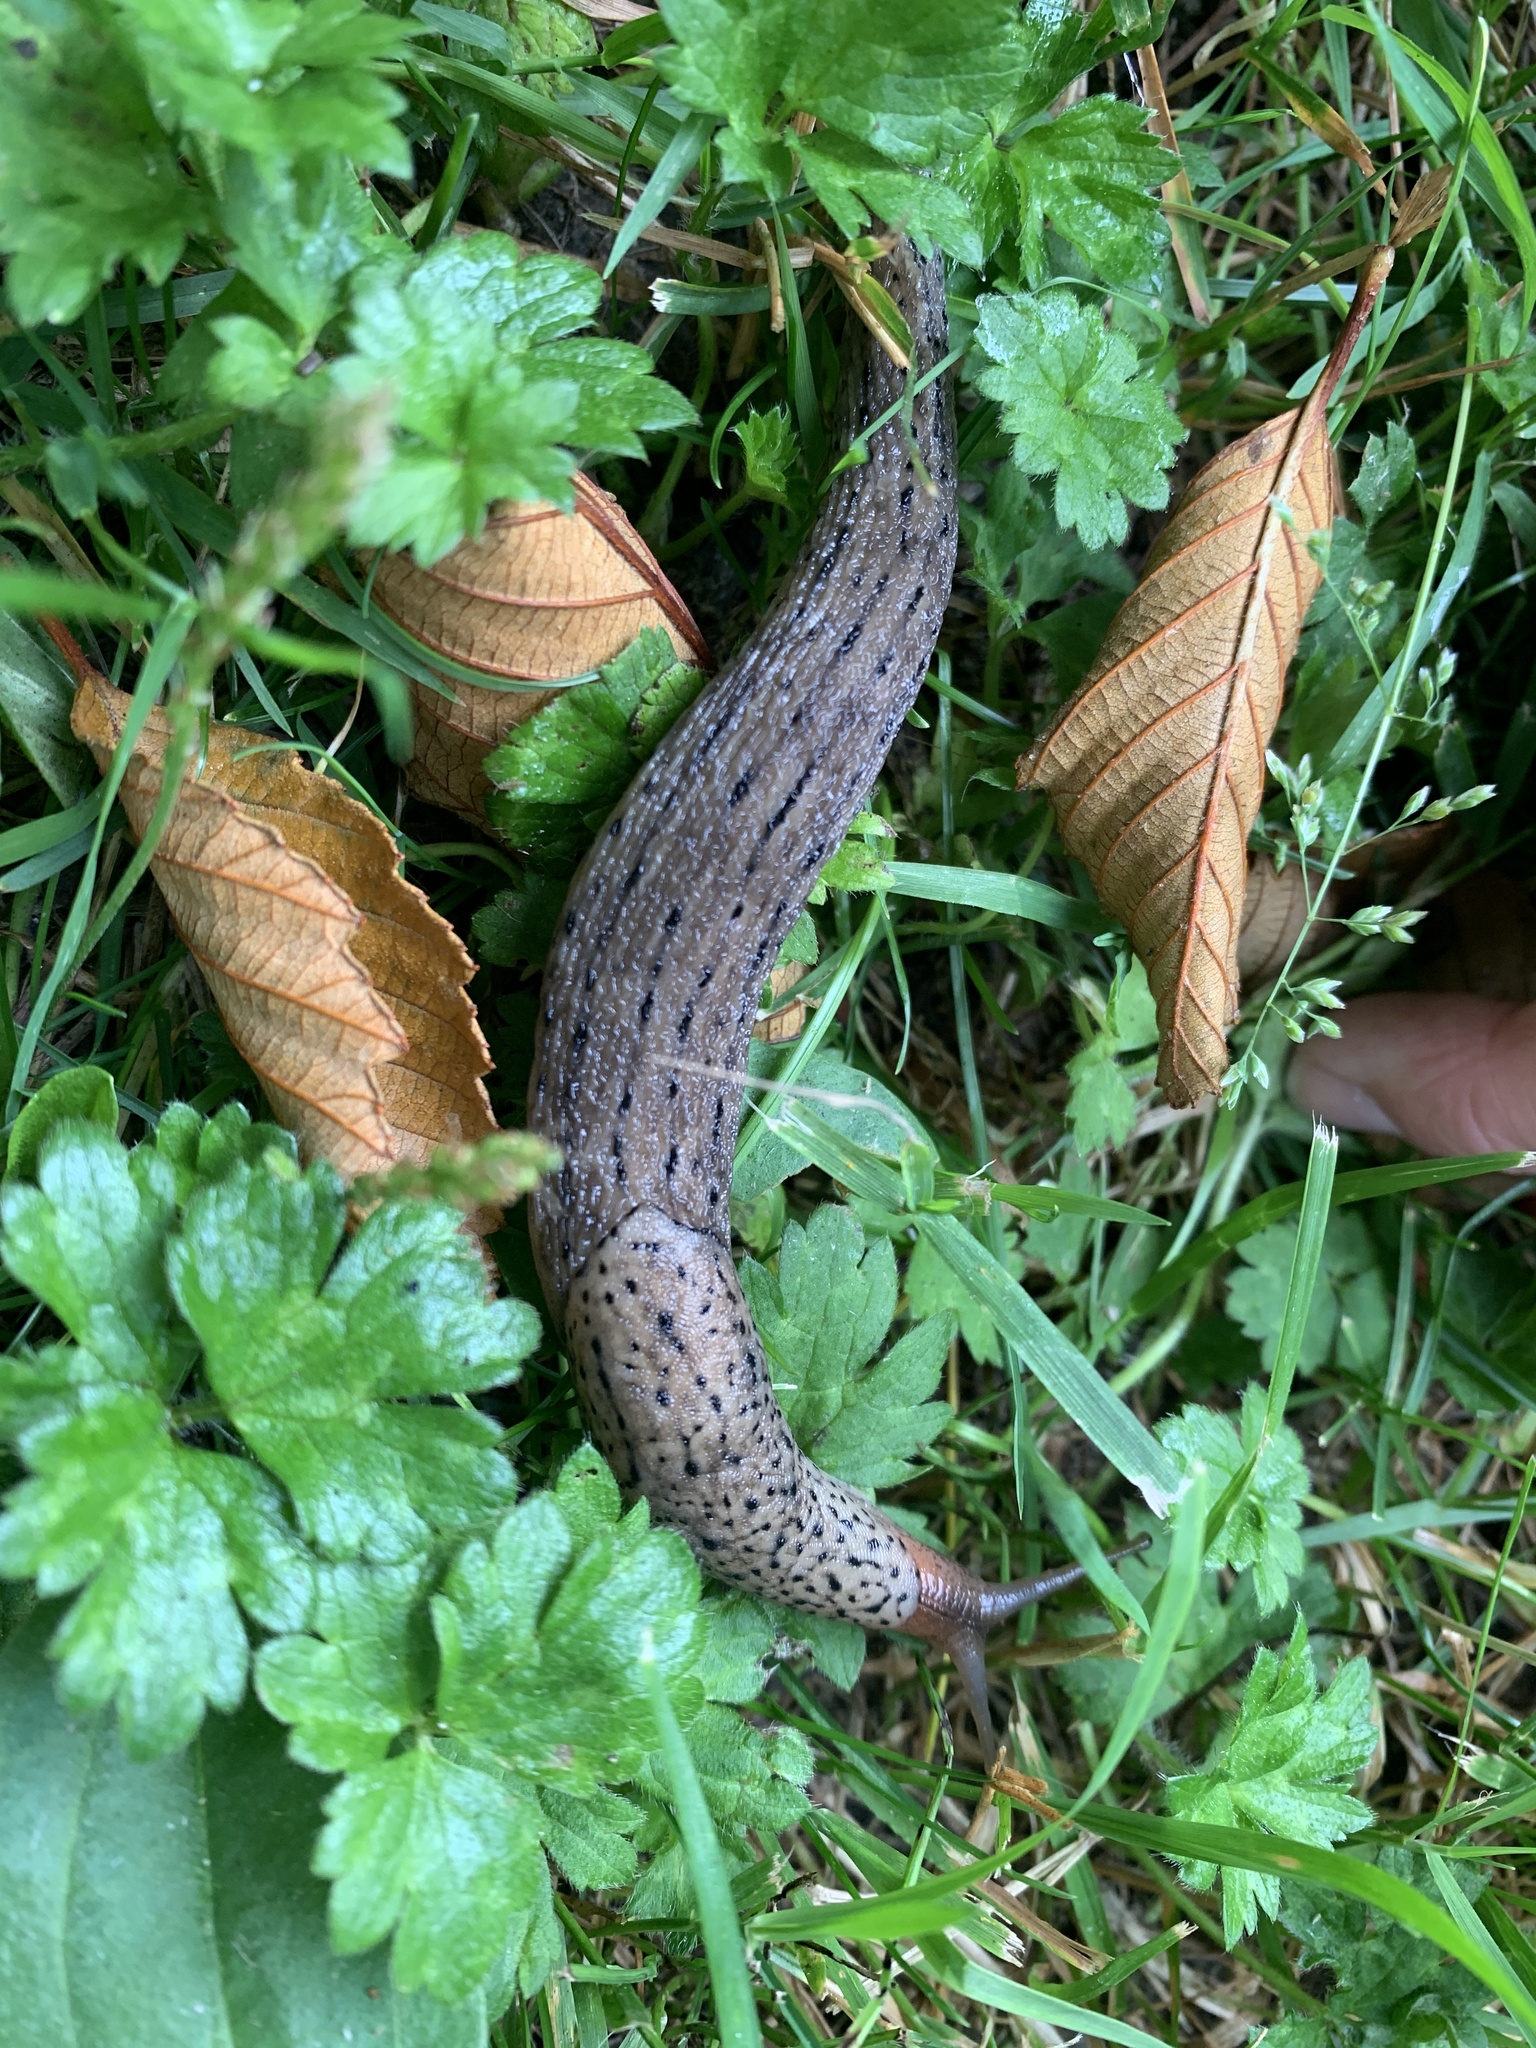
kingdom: Animalia
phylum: Mollusca
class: Gastropoda
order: Stylommatophora
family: Limacidae
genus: Limax
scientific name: Limax maximus
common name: Great grey slug
